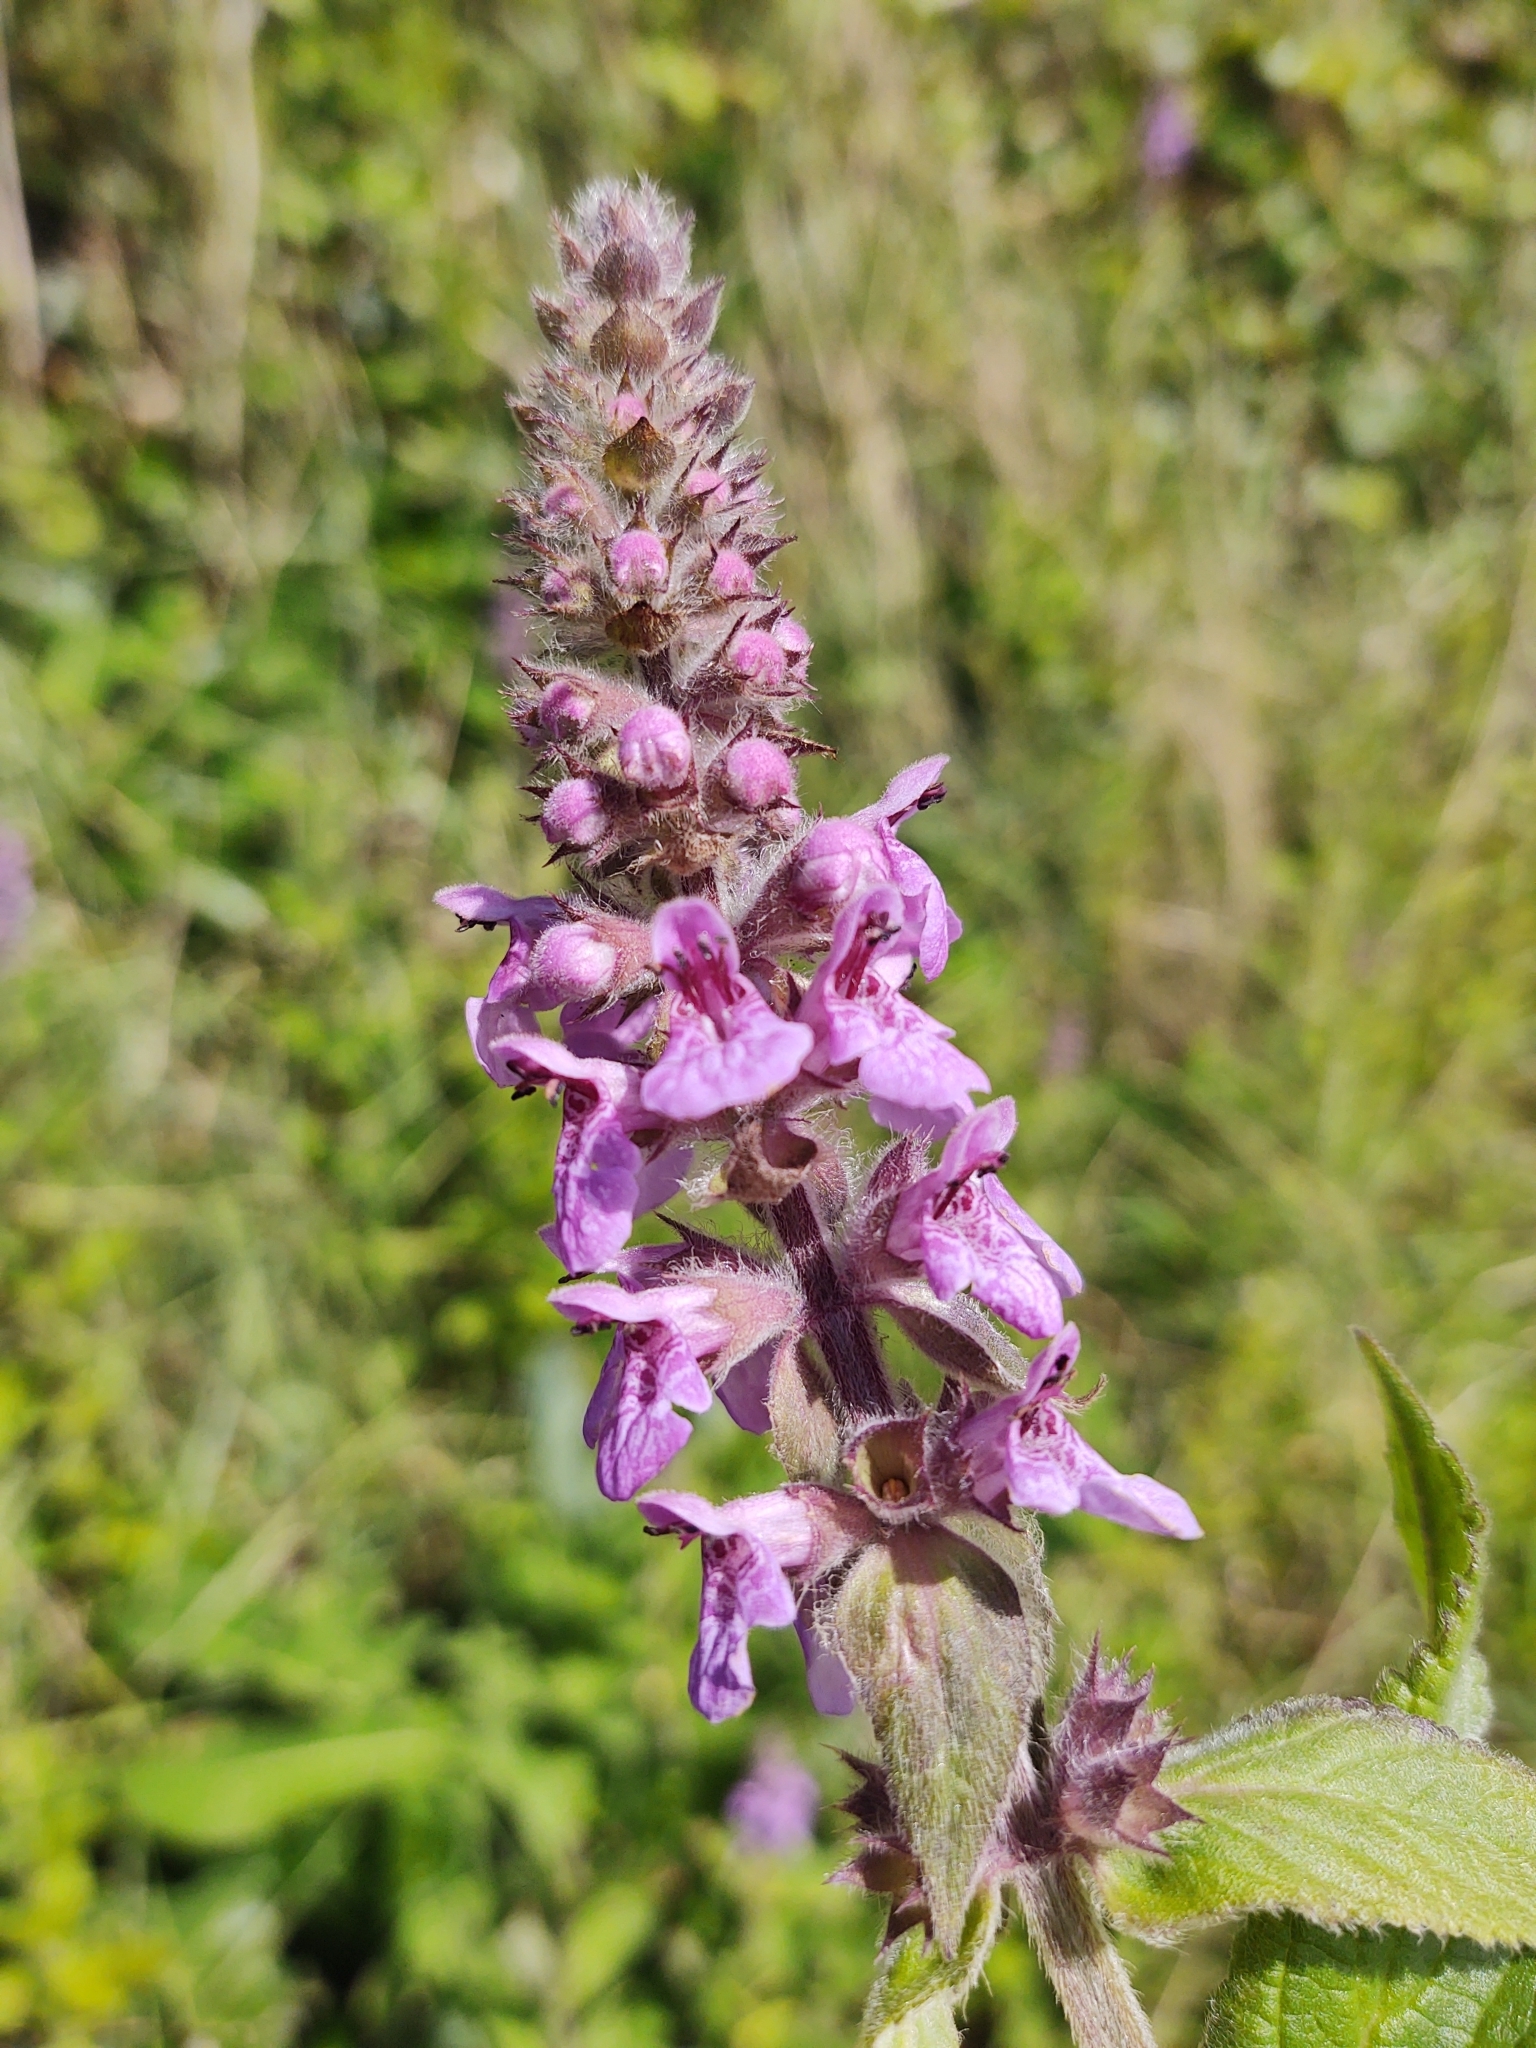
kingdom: Plantae
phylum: Tracheophyta
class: Magnoliopsida
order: Lamiales
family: Lamiaceae
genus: Stachys
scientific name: Stachys palustris
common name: Marsh woundwort
